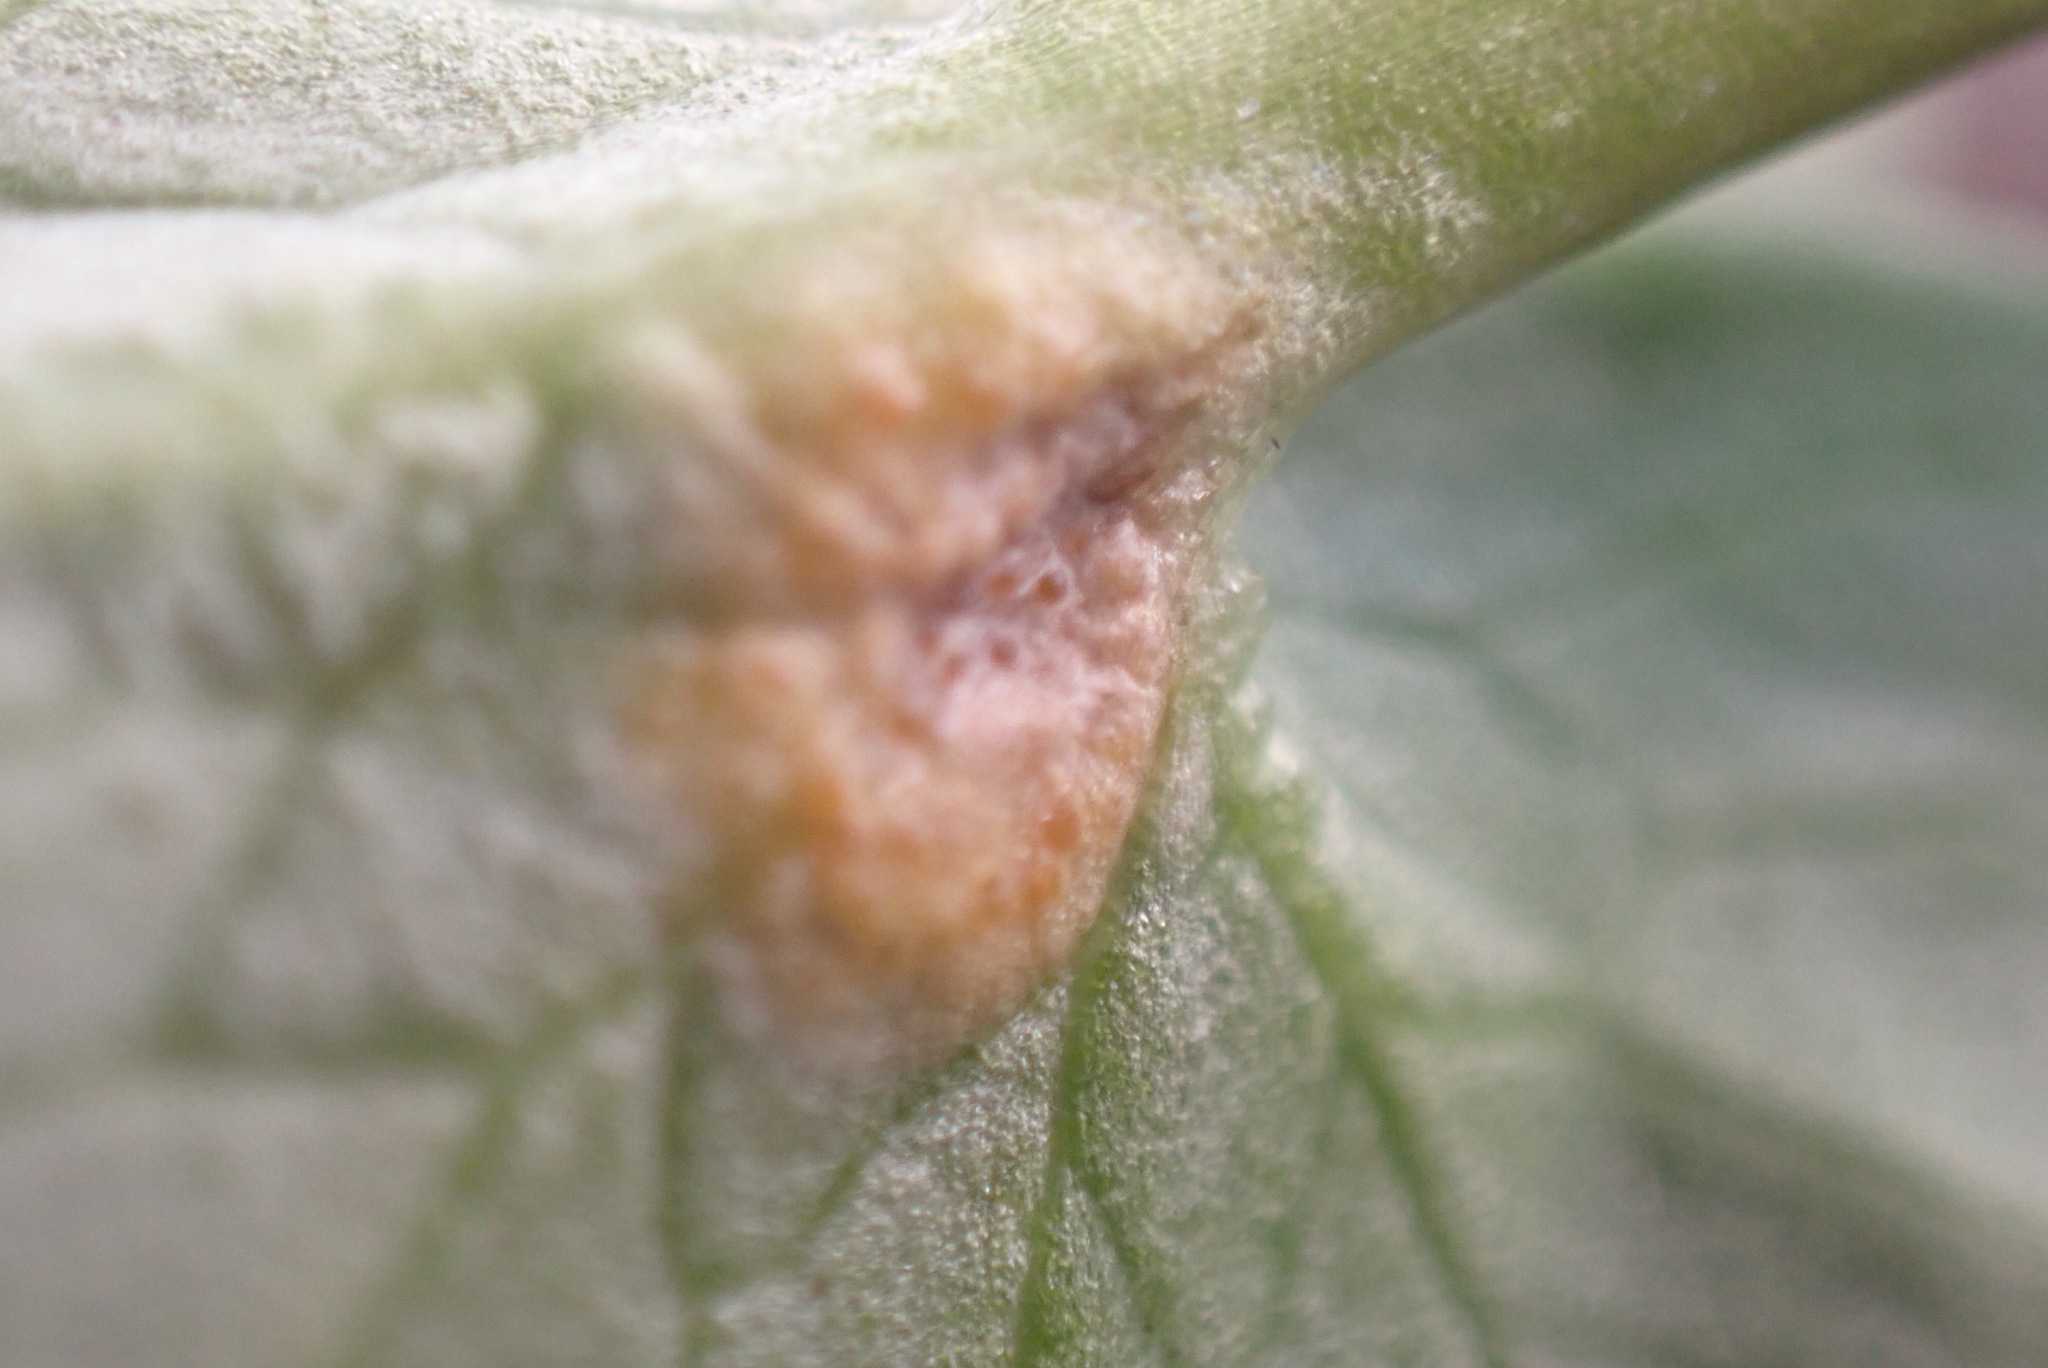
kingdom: Fungi
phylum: Basidiomycota
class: Pucciniomycetes
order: Pucciniales
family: Pucciniaceae
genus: Uromyces
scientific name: Uromyces ficariae
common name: Bitter chocolate rust
